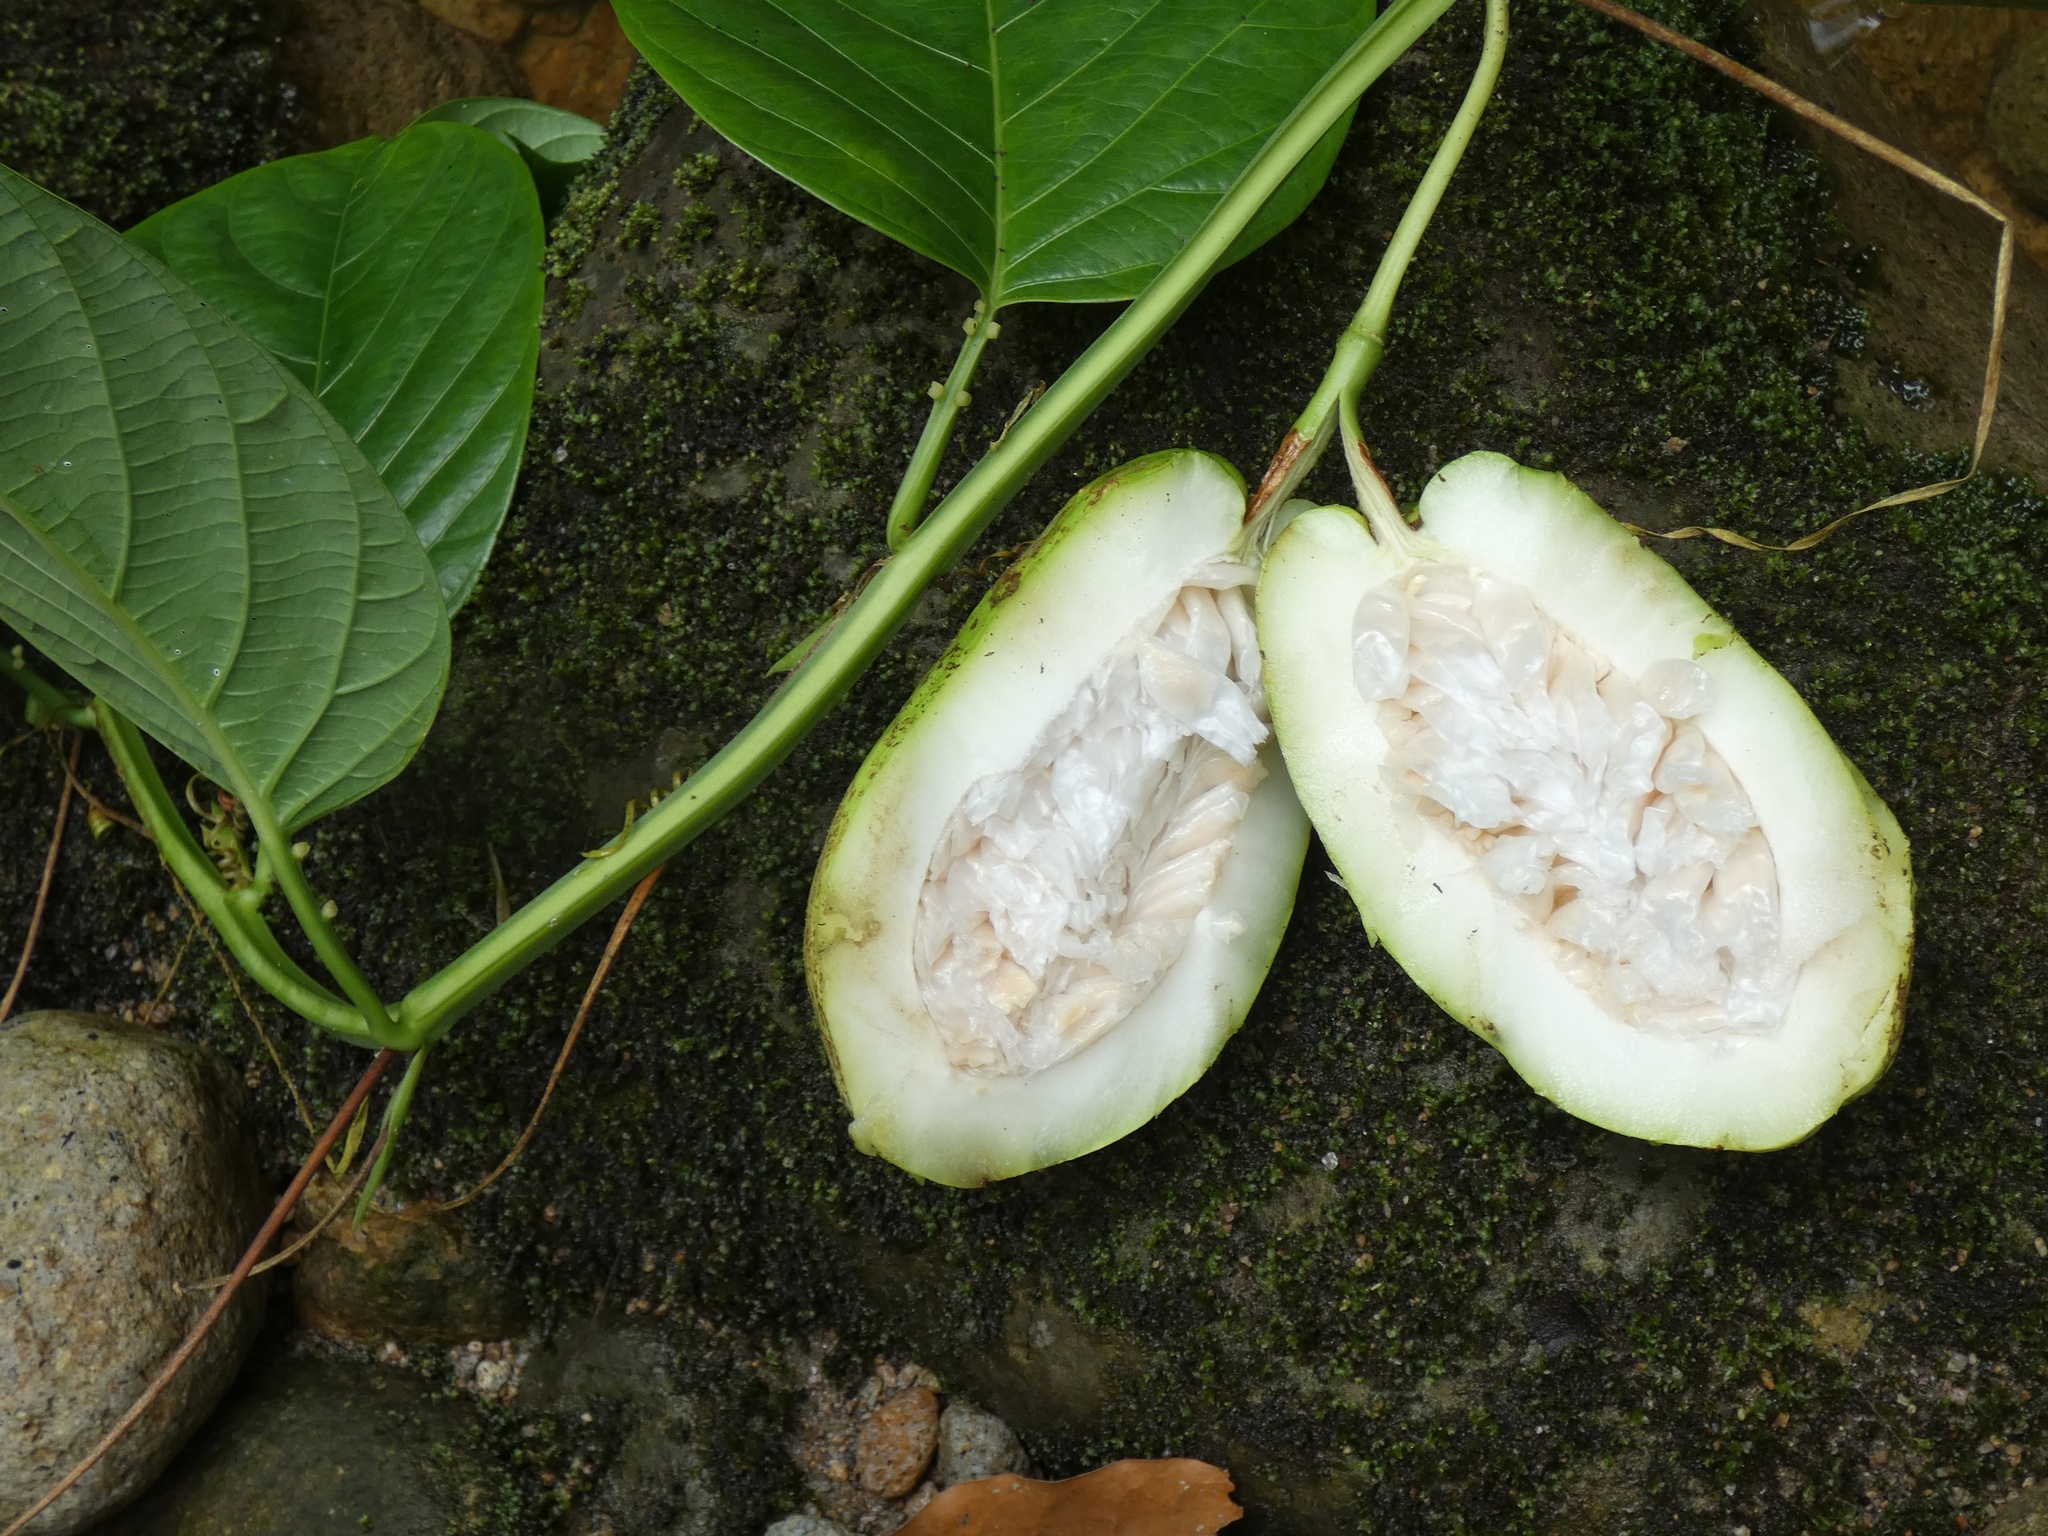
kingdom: Plantae
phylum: Tracheophyta
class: Magnoliopsida
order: Malpighiales
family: Passifloraceae
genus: Passiflora
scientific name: Passiflora alata
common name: Wing-stemmed passion flower
